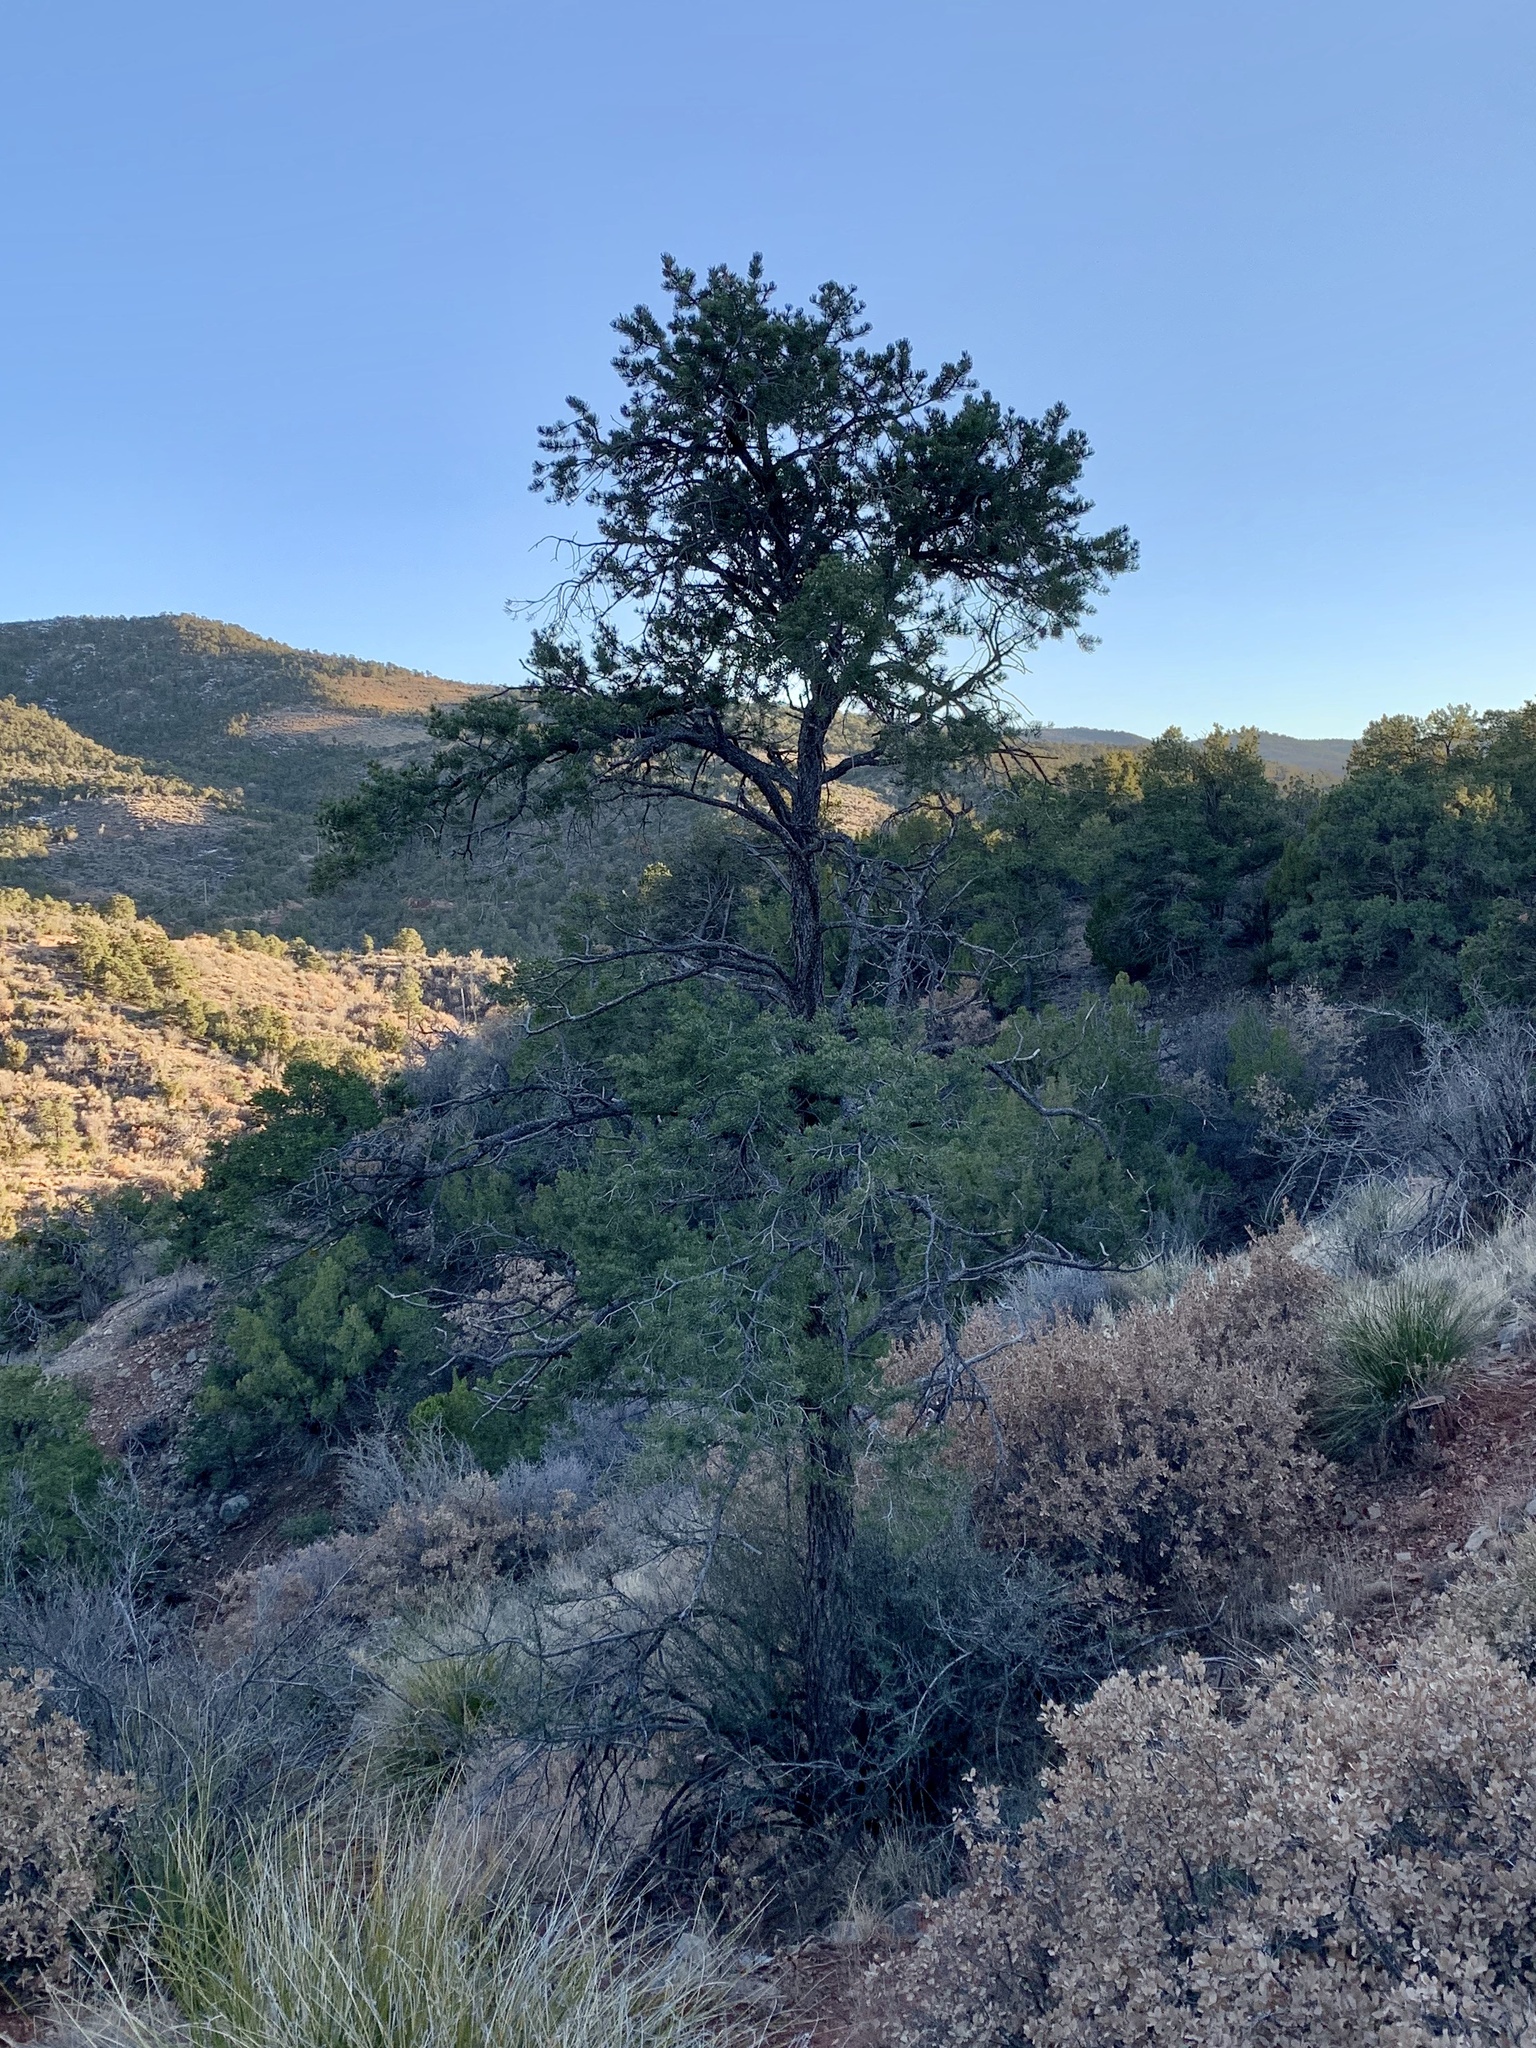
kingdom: Plantae
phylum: Tracheophyta
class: Pinopsida
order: Pinales
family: Pinaceae
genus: Pinus
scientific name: Pinus edulis
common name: Colorado pinyon
